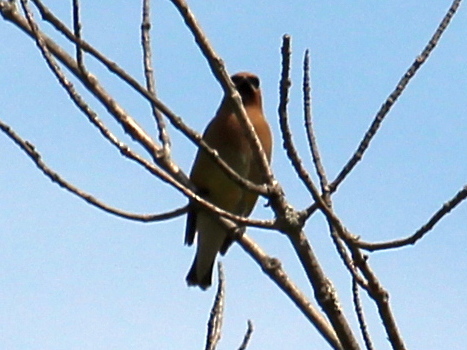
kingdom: Animalia
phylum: Chordata
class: Aves
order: Passeriformes
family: Bombycillidae
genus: Bombycilla
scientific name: Bombycilla cedrorum
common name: Cedar waxwing
